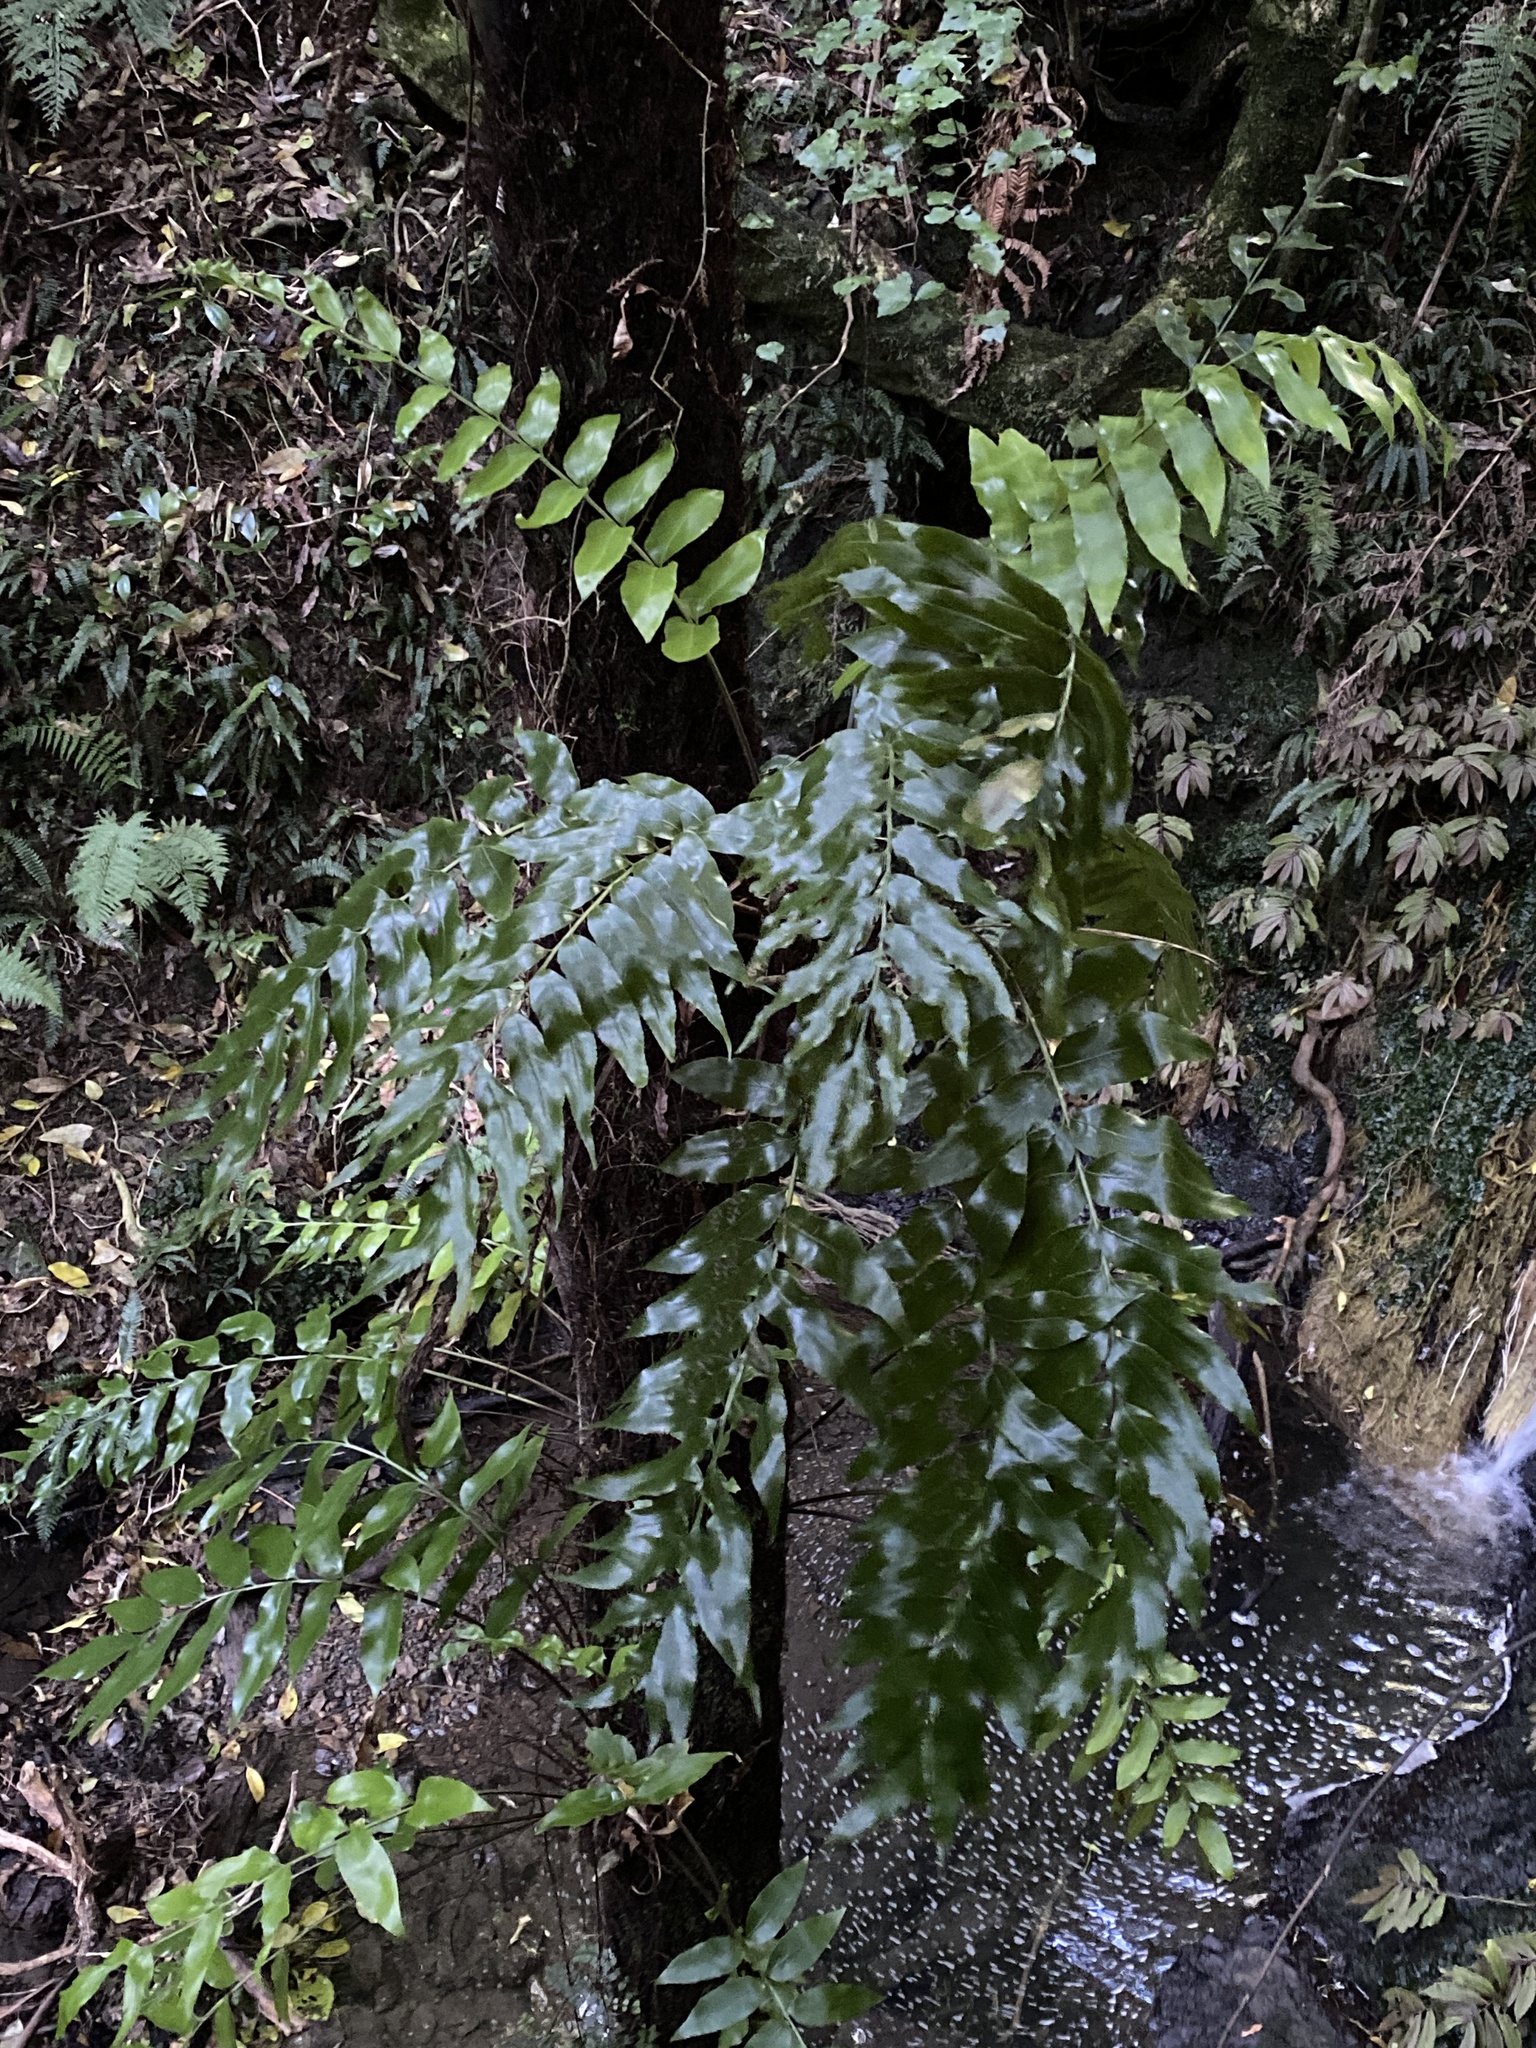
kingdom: Plantae
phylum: Tracheophyta
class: Polypodiopsida
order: Polypodiales
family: Aspleniaceae
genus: Asplenium
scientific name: Asplenium oblongifolium
